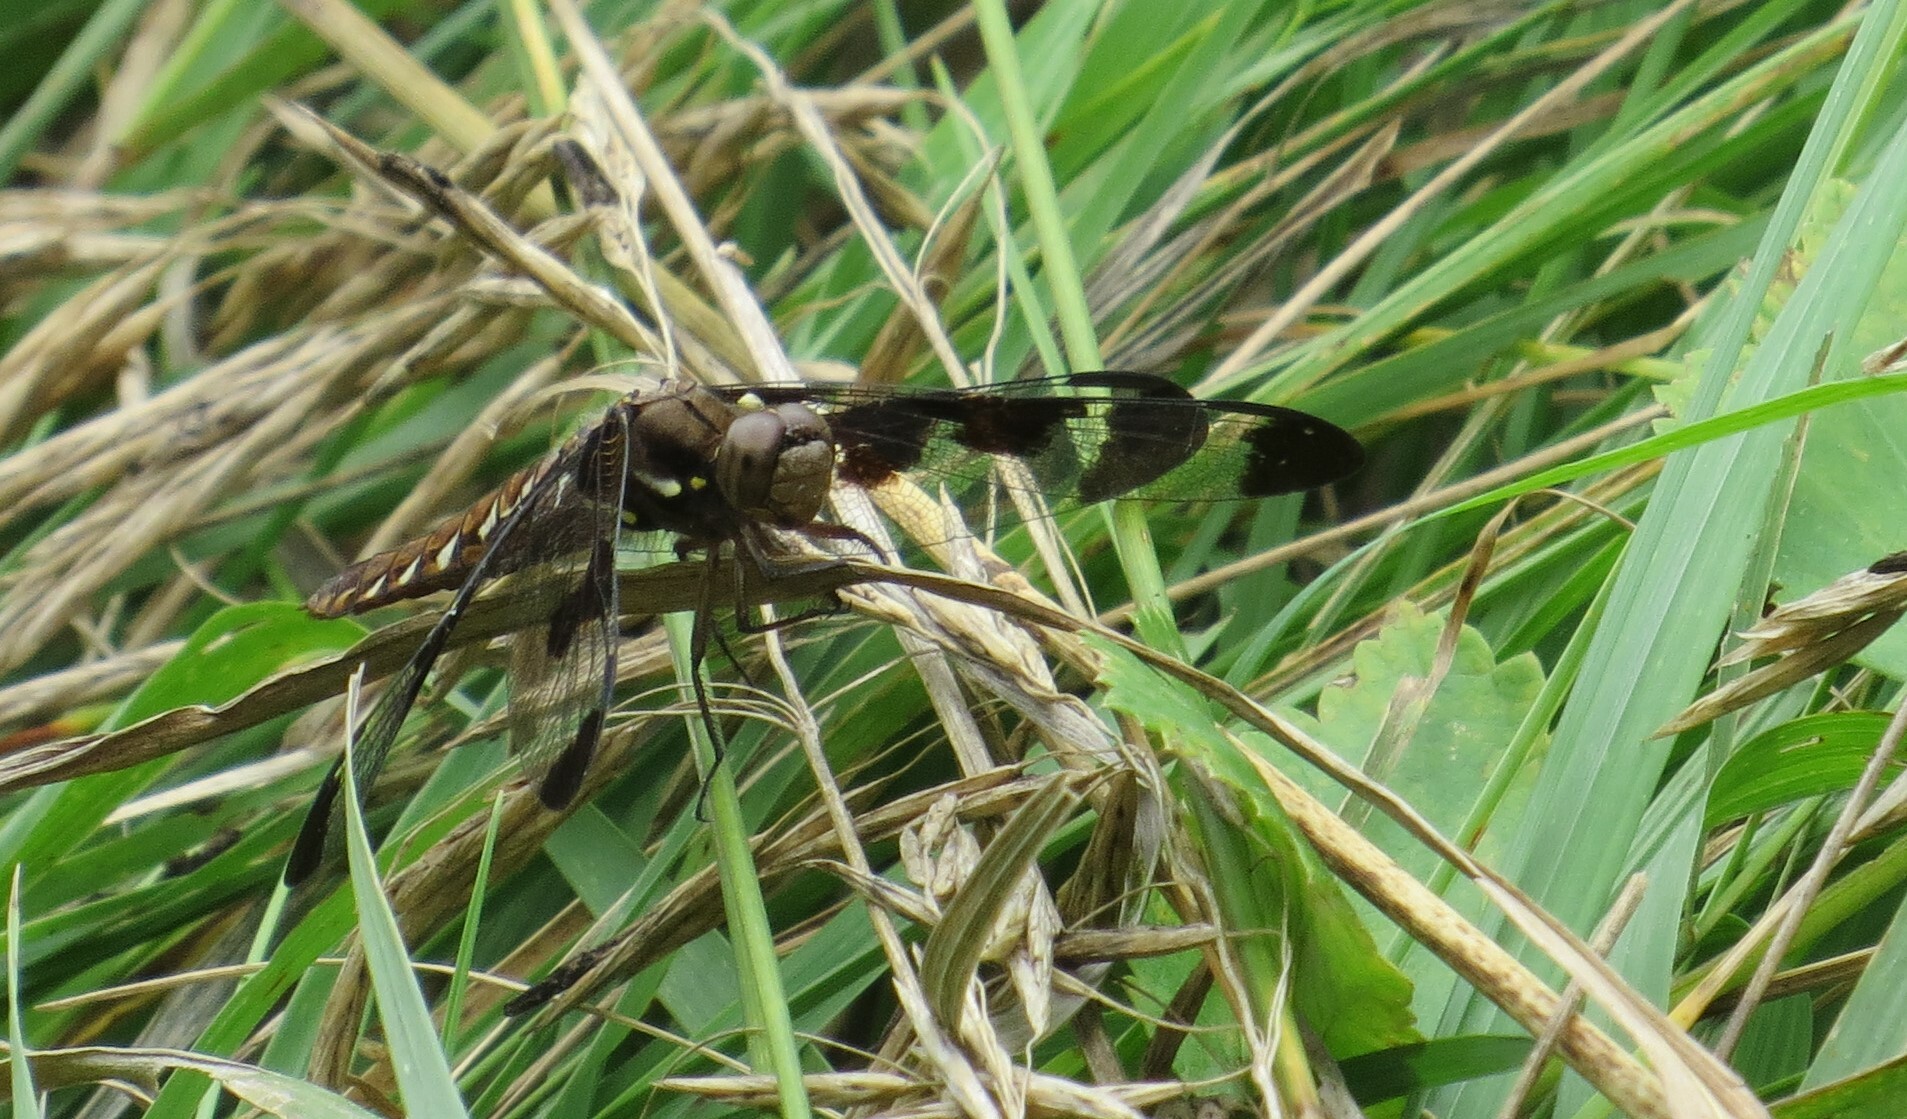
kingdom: Animalia
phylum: Arthropoda
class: Insecta
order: Odonata
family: Libellulidae
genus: Plathemis
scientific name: Plathemis lydia
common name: Common whitetail
